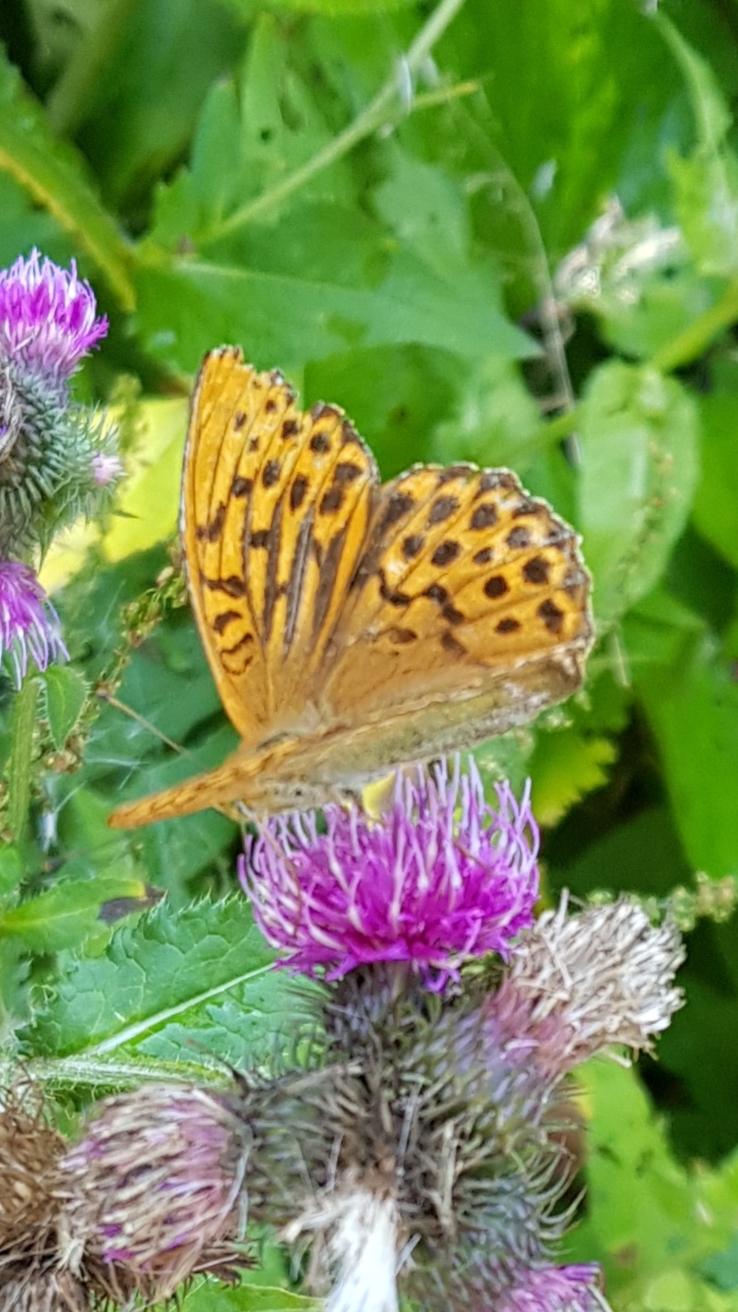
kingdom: Animalia
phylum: Arthropoda
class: Insecta
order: Lepidoptera
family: Nymphalidae
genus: Argynnis
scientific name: Argynnis paphia
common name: Silver-washed fritillary
